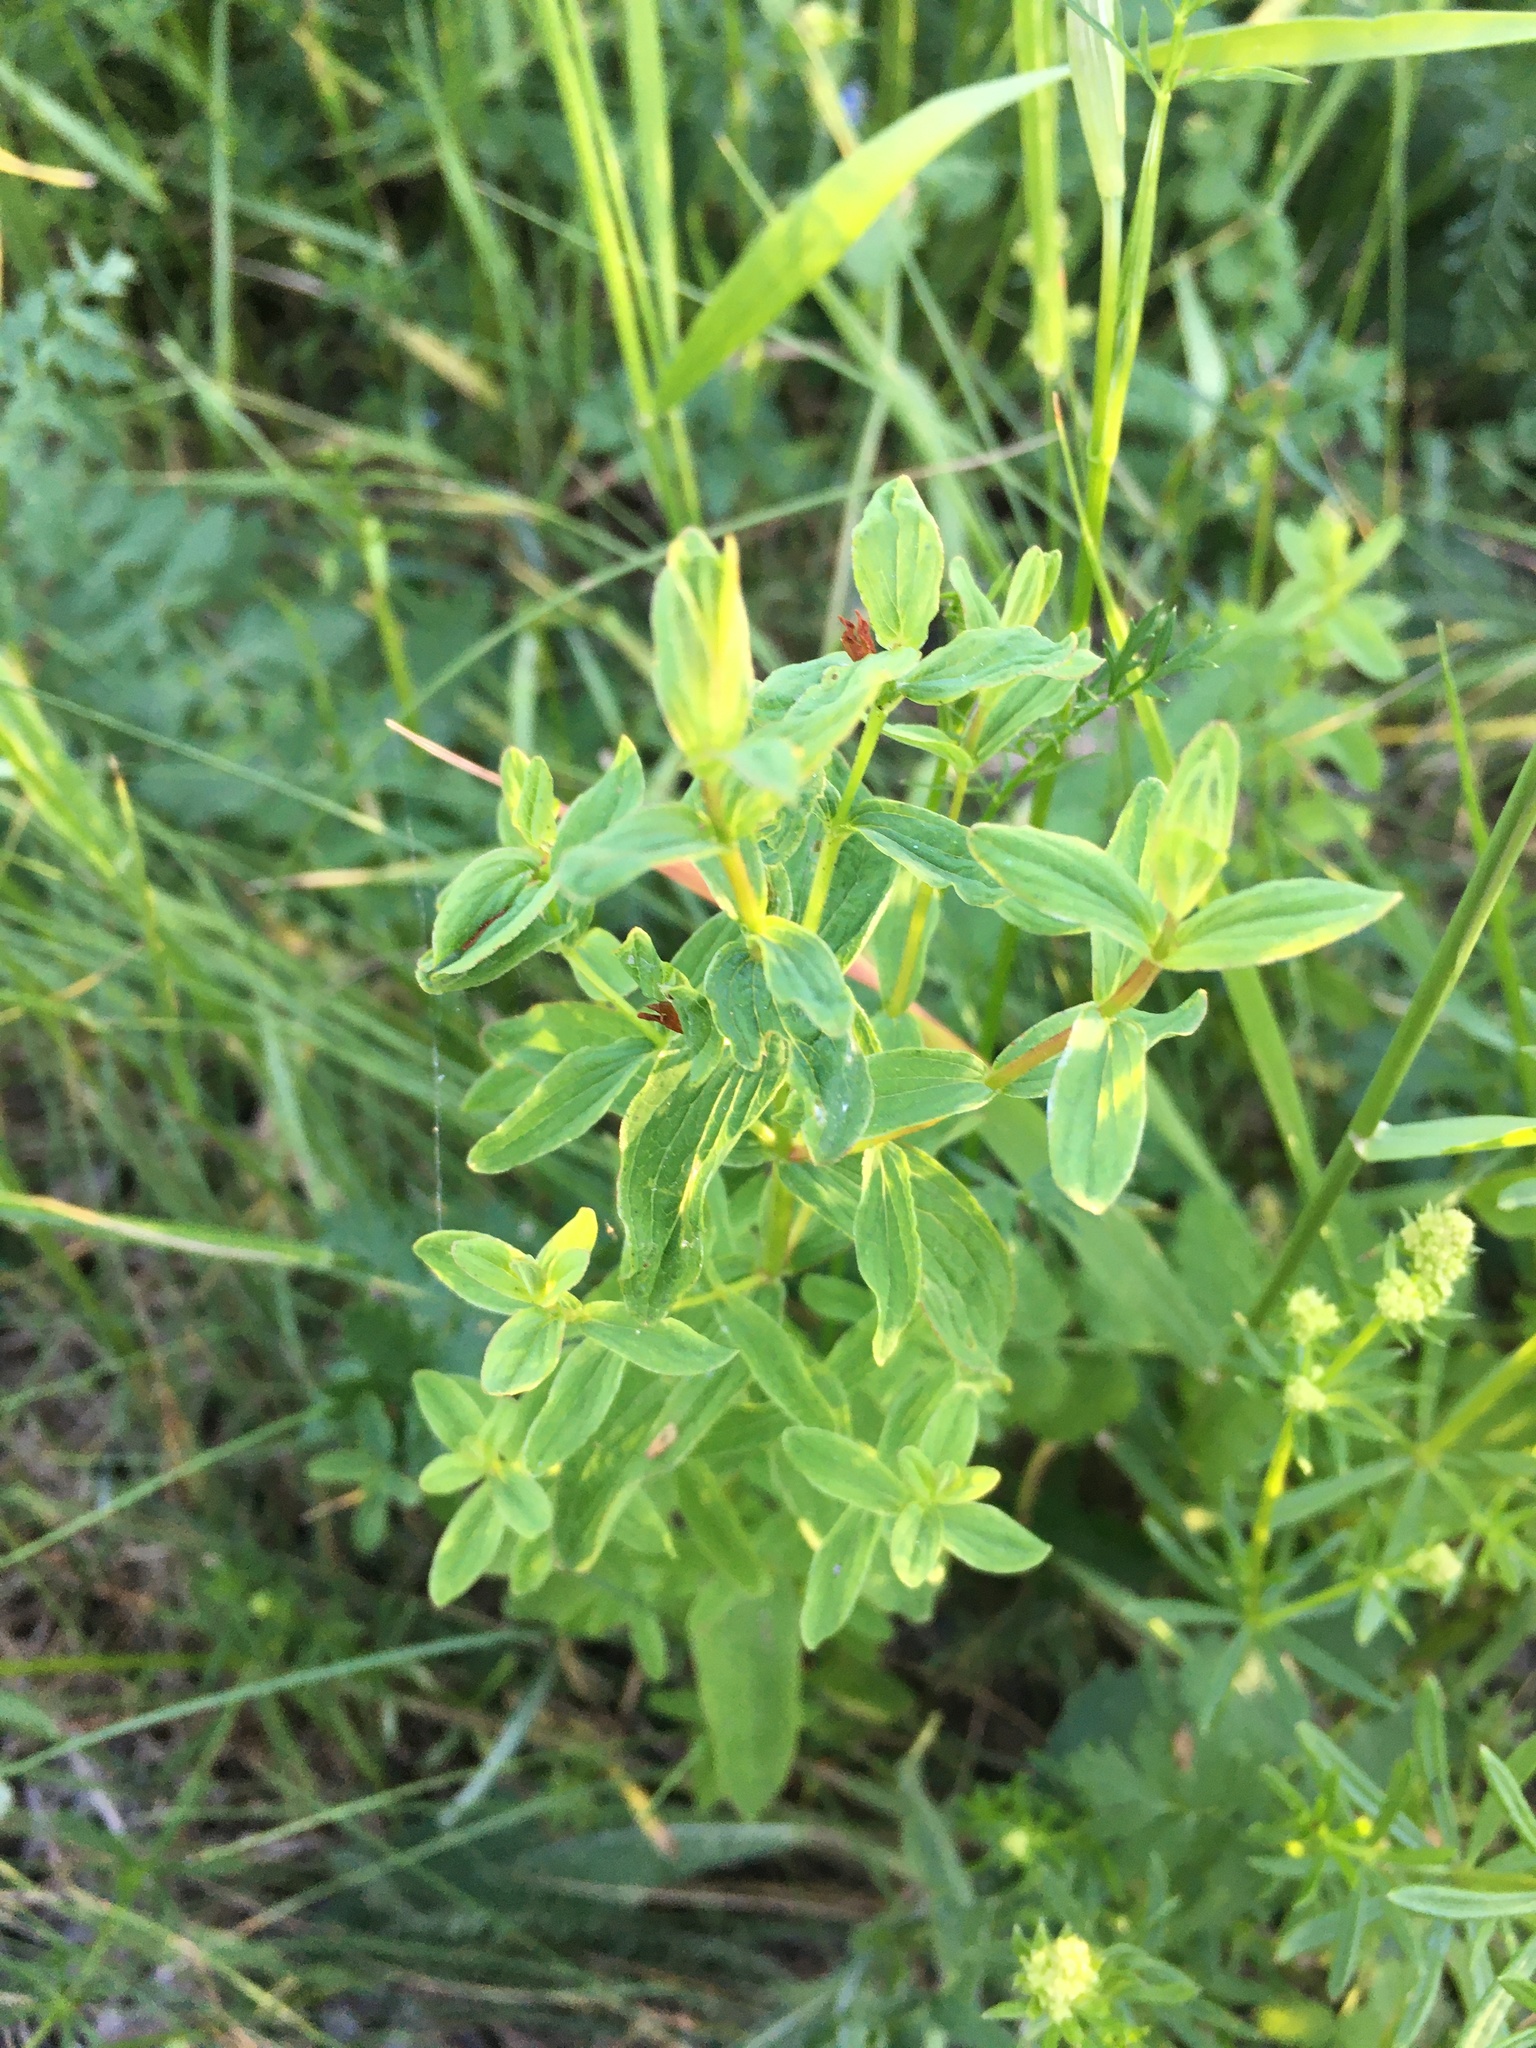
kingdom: Plantae
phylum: Tracheophyta
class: Magnoliopsida
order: Malpighiales
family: Hypericaceae
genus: Hypericum
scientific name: Hypericum maculatum
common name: Imperforate st. john's-wort
